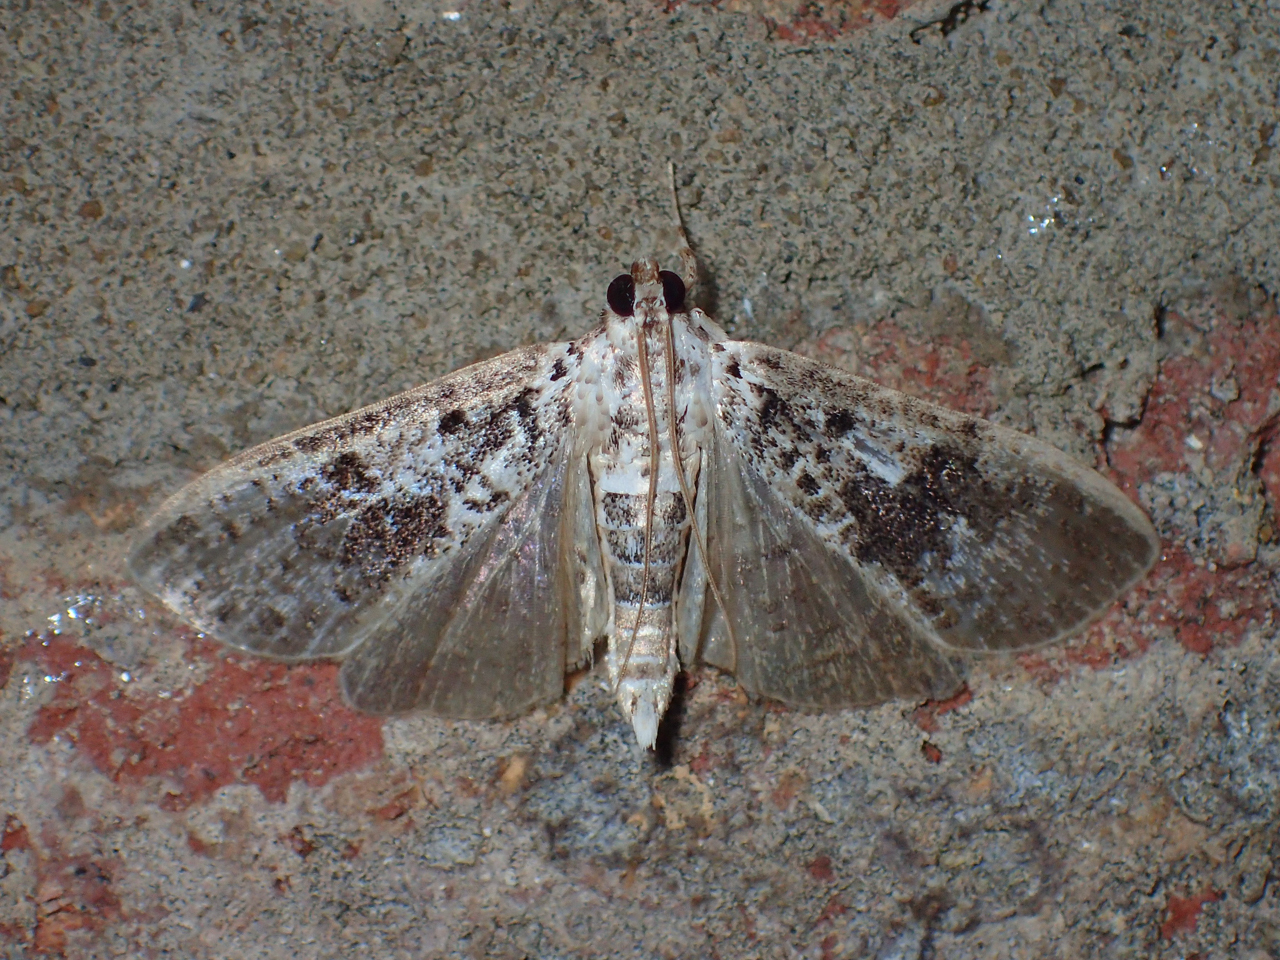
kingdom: Animalia
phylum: Arthropoda
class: Insecta
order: Lepidoptera
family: Crambidae
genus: Palpita
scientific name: Palpita magniferalis
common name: Splendid palpita moth
